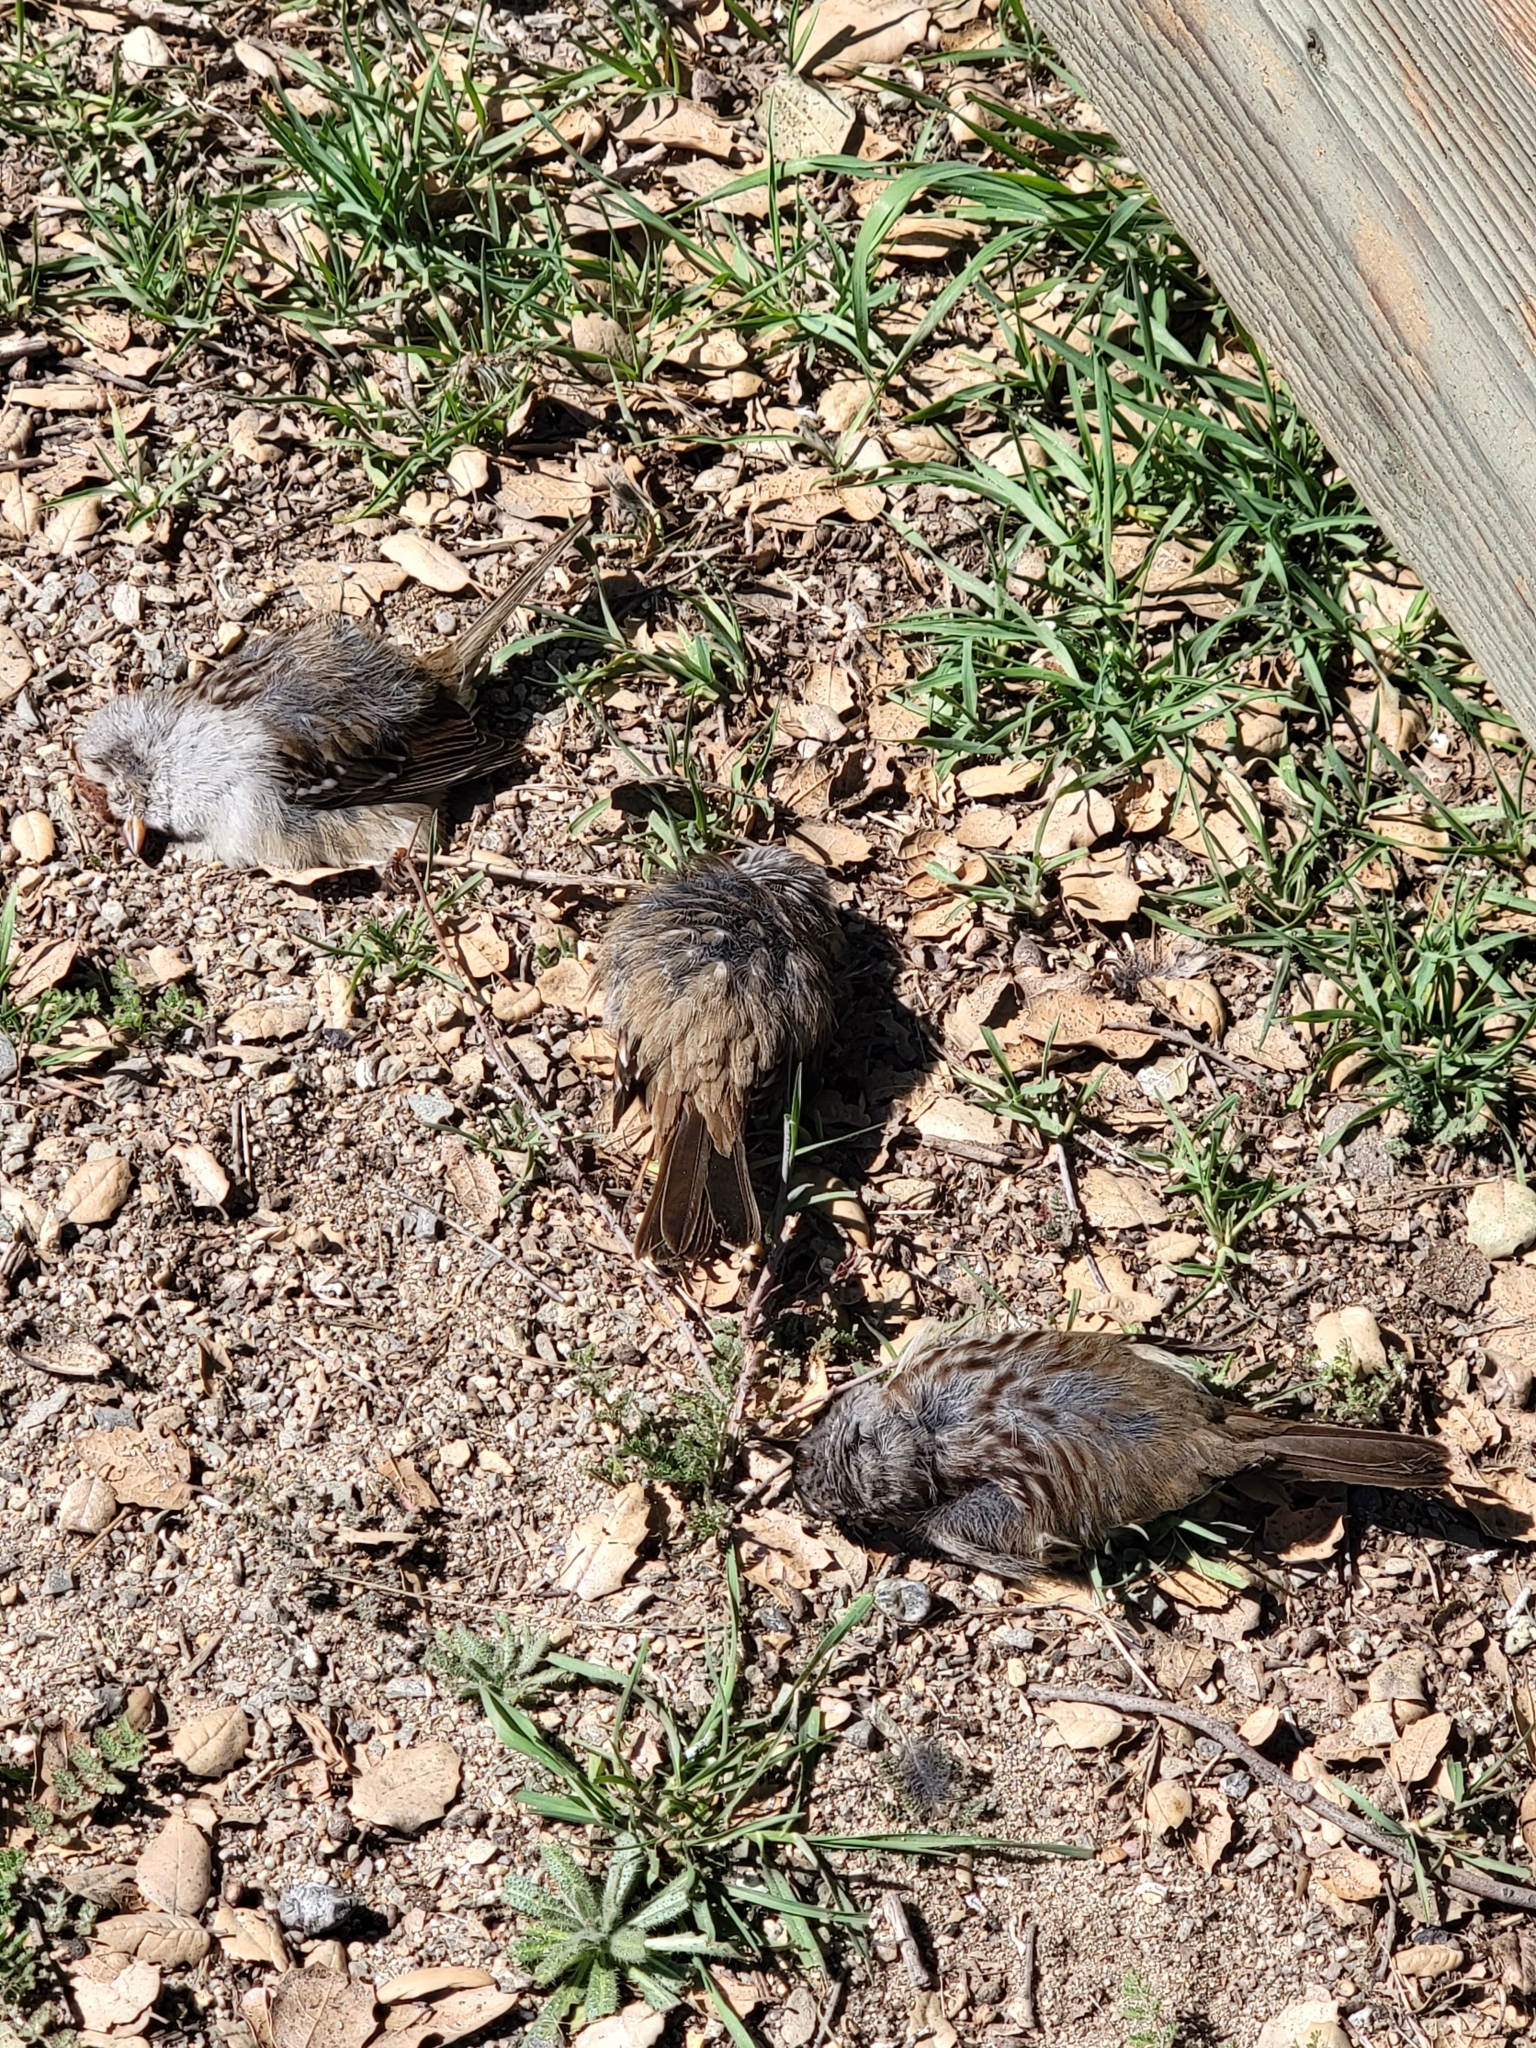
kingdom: Animalia
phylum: Chordata
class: Aves
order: Passeriformes
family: Passerellidae
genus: Zonotrichia
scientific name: Zonotrichia leucophrys
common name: White-crowned sparrow
